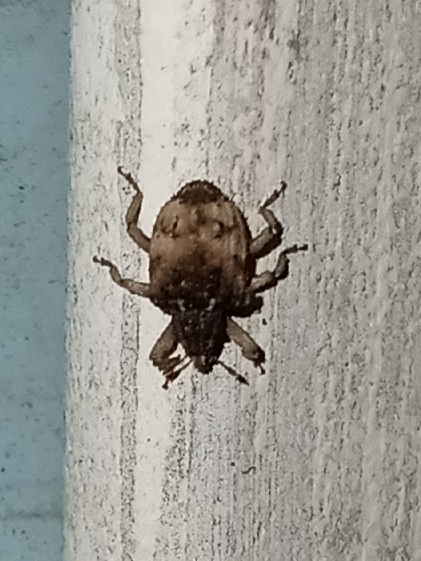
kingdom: Animalia
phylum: Arthropoda
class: Insecta
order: Coleoptera
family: Curculionidae
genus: Phyrdenus
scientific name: Phyrdenus divergens
